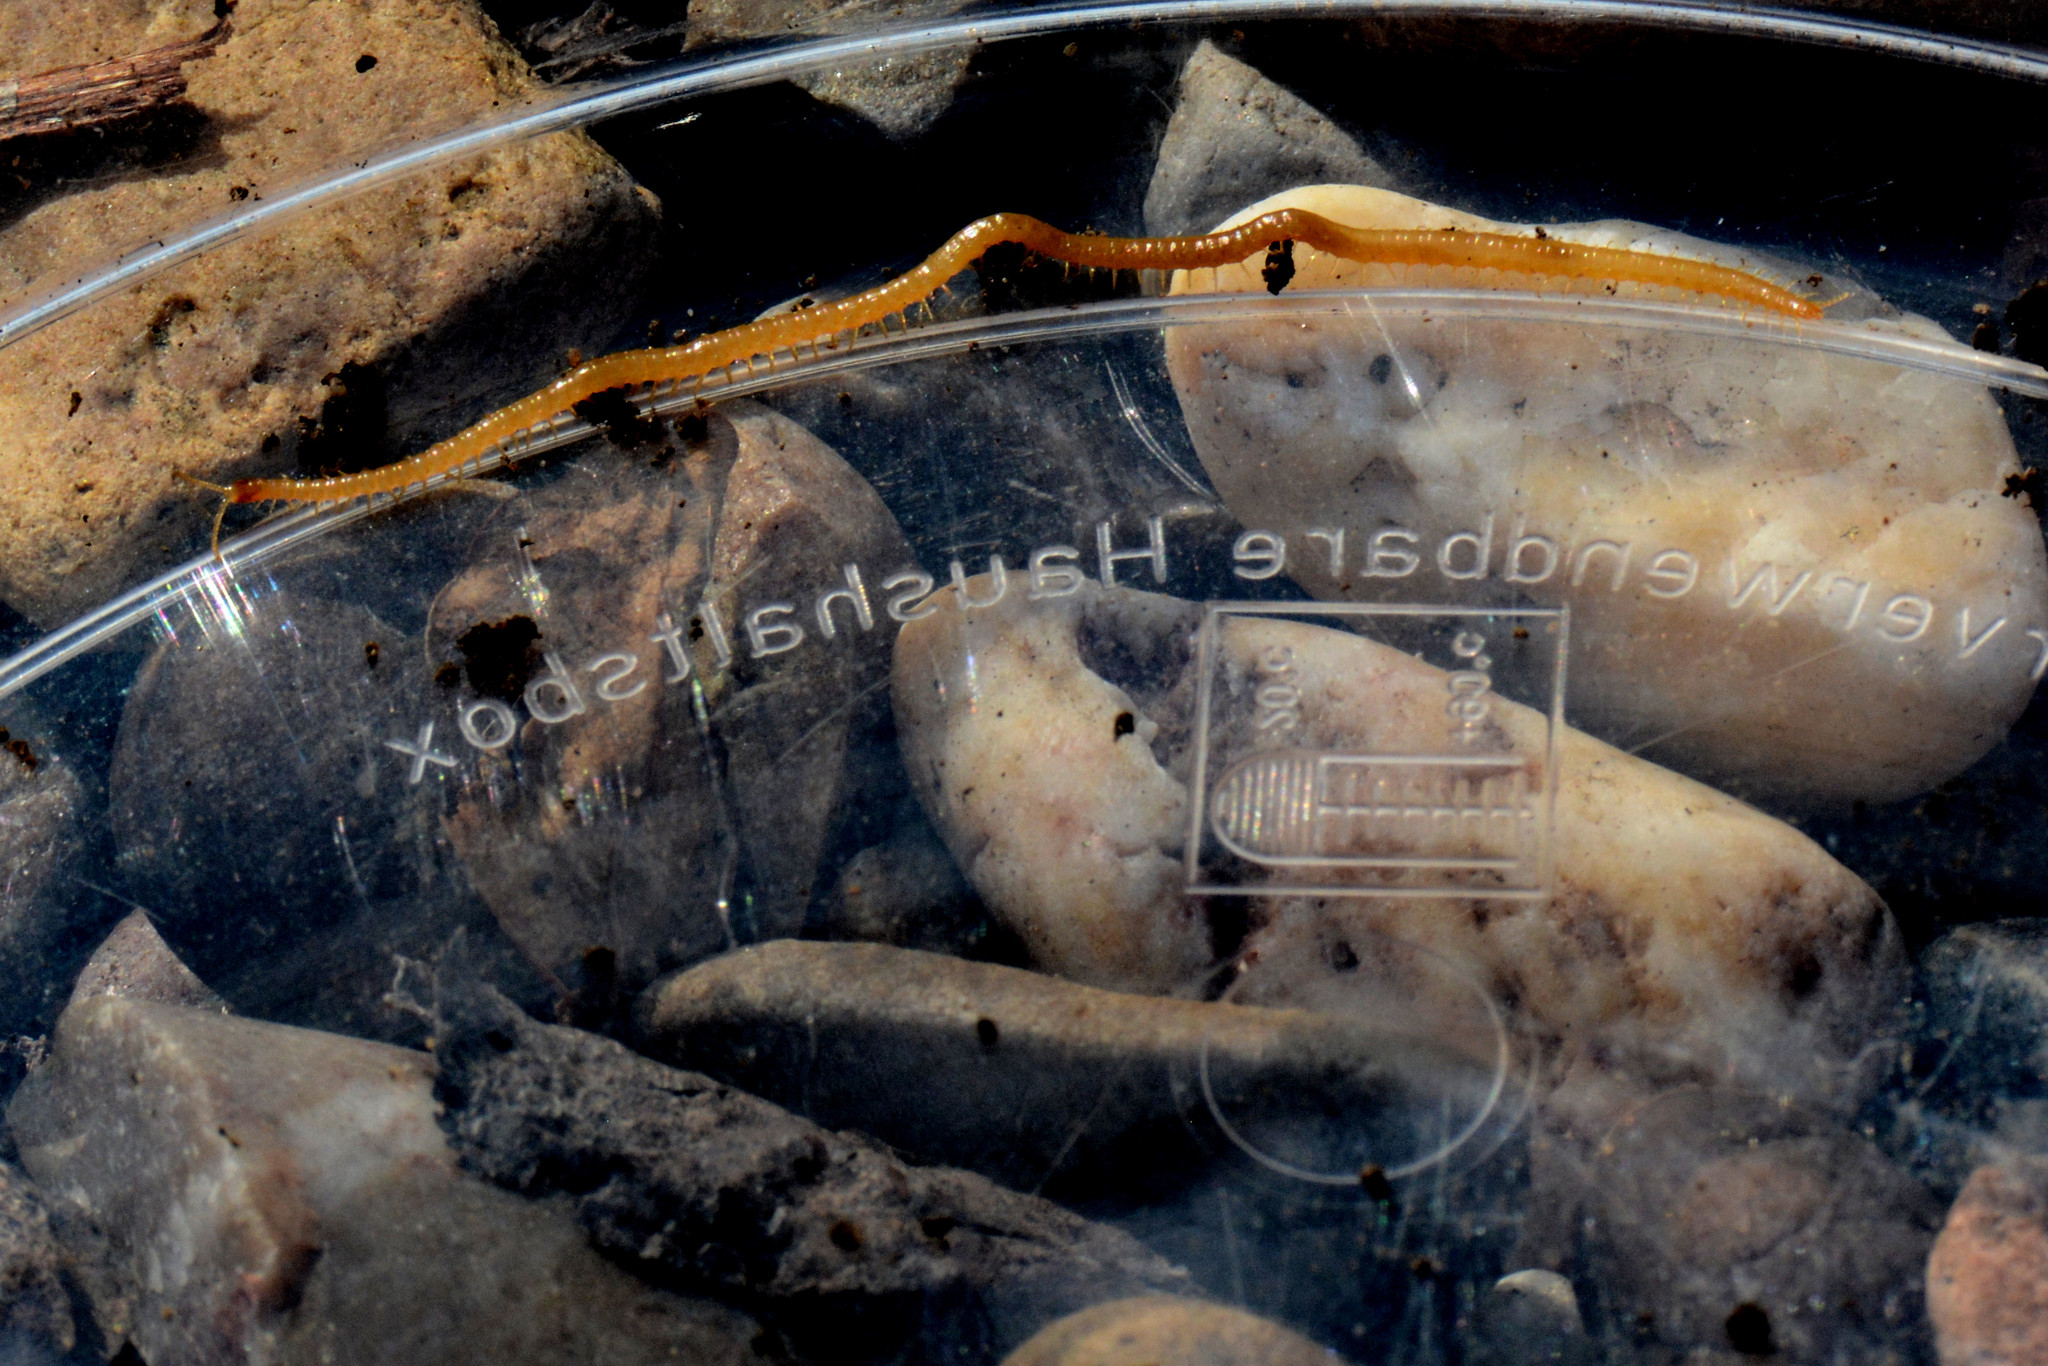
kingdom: Animalia
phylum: Arthropoda
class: Chilopoda
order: Geophilomorpha
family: Himantariidae
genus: Stigmatogaster
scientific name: Stigmatogaster subterranea
